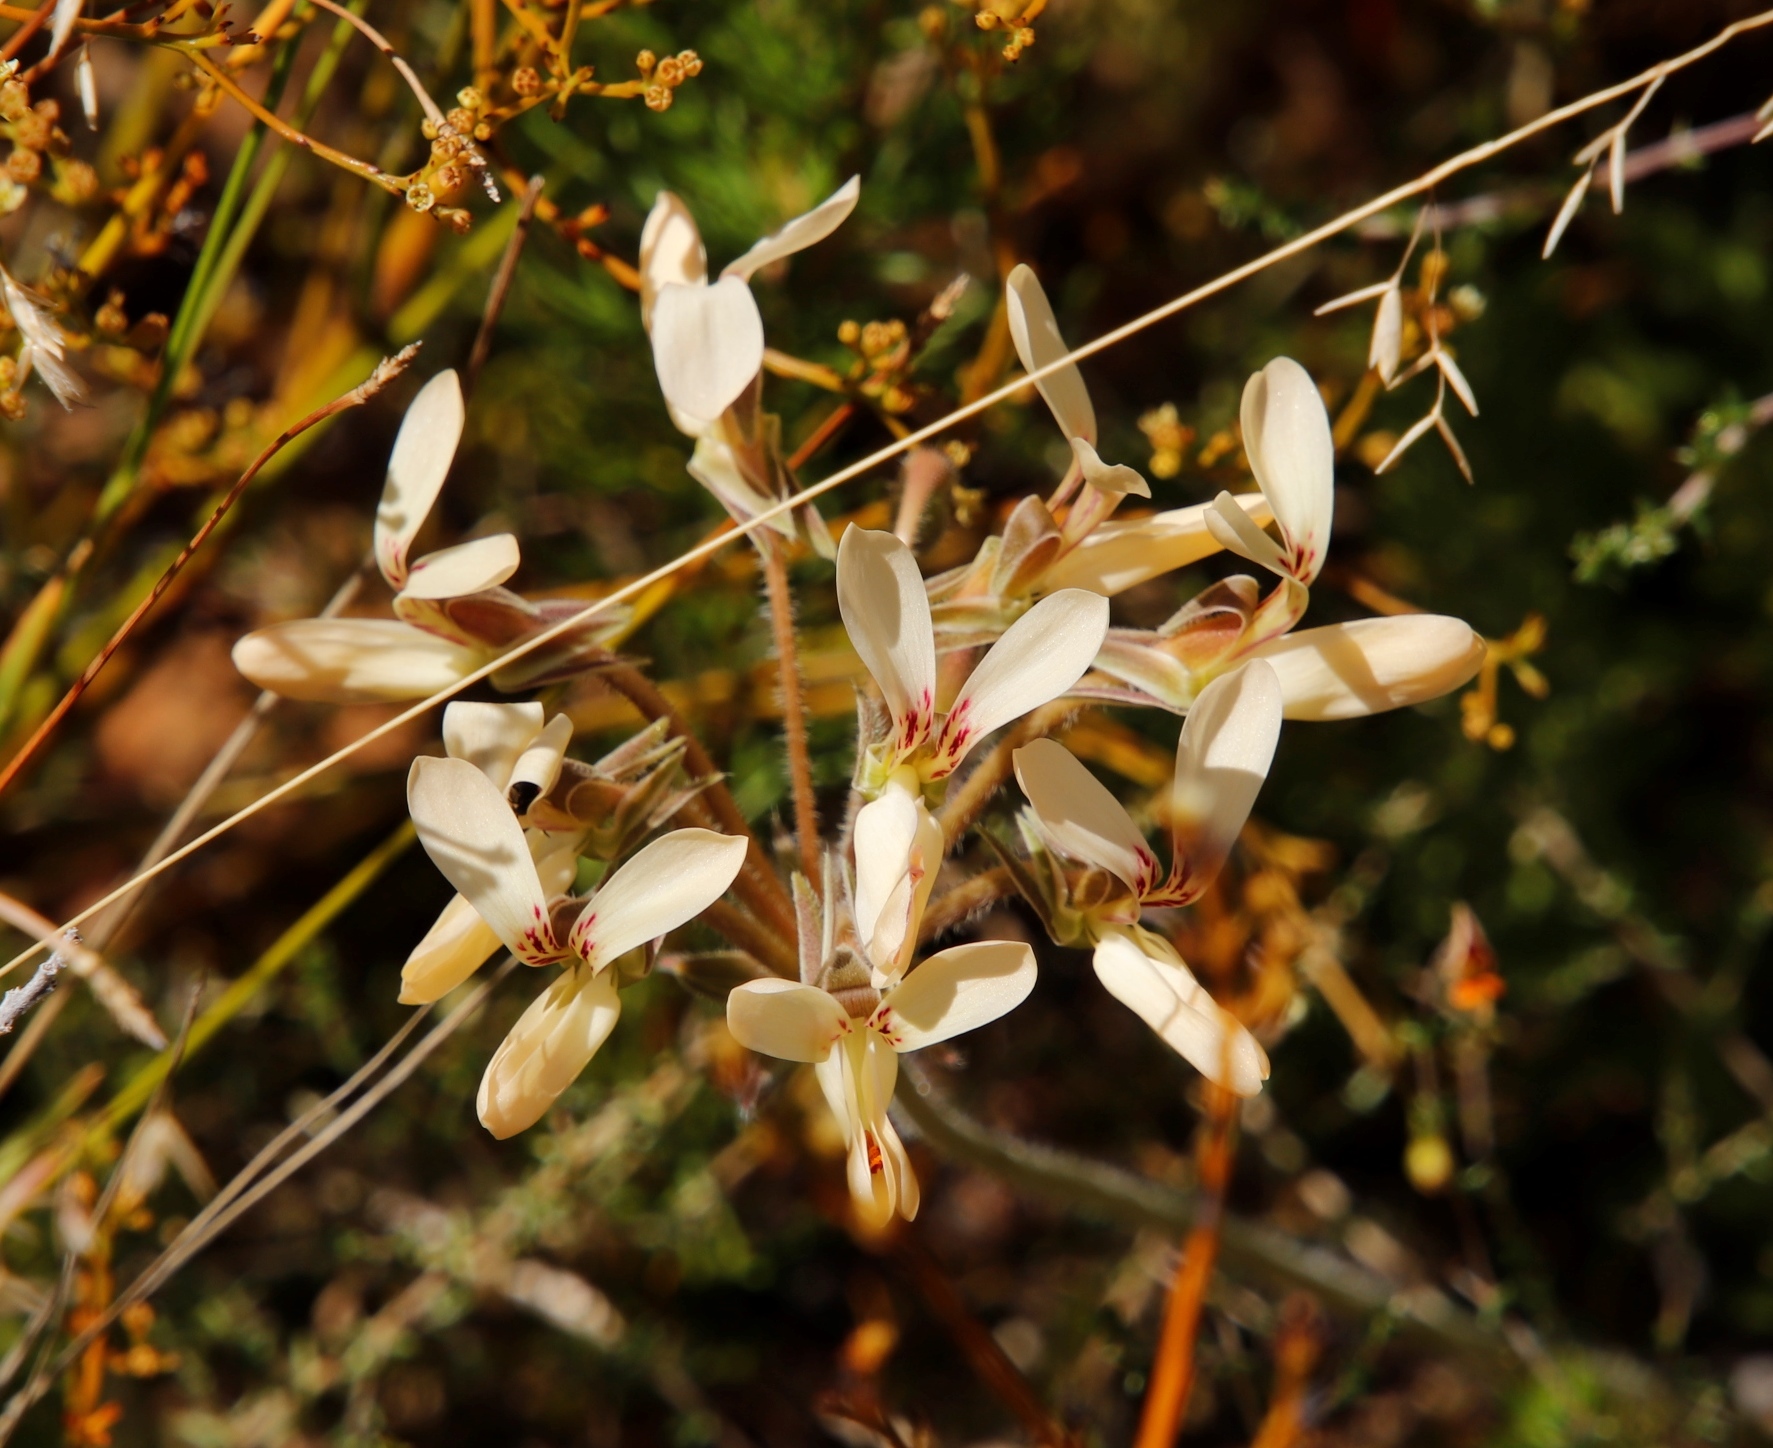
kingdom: Plantae
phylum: Tracheophyta
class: Magnoliopsida
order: Geraniales
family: Geraniaceae
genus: Pelargonium
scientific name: Pelargonium rapaceum
